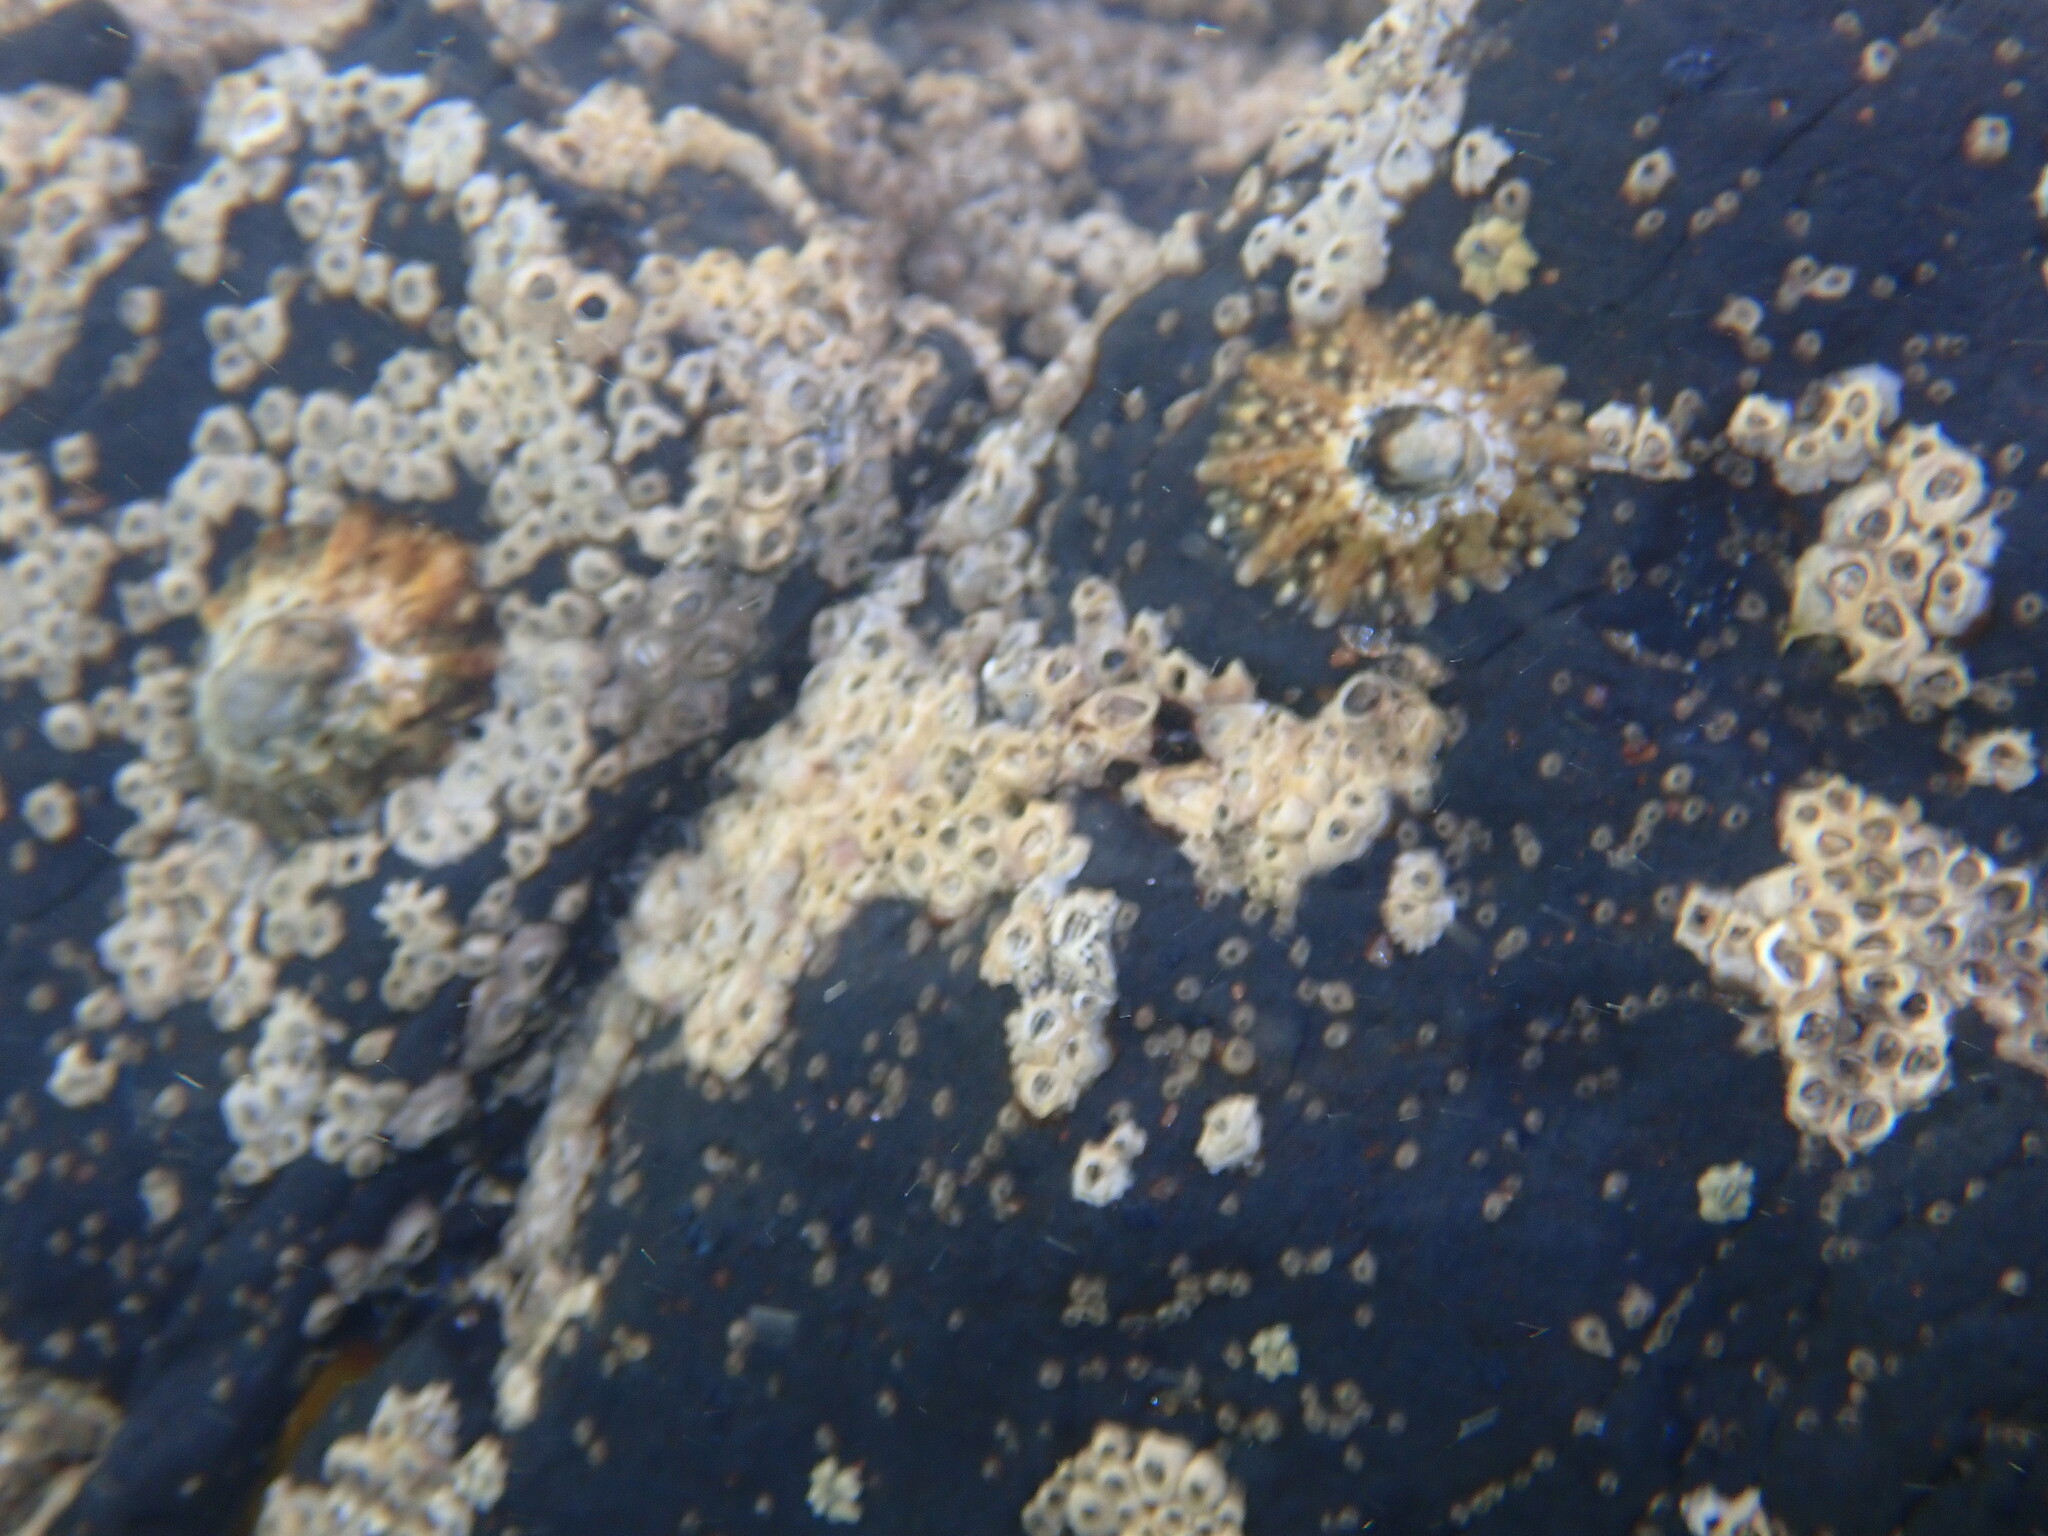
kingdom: Animalia
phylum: Mollusca
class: Gastropoda
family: Nacellidae
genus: Cellana
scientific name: Cellana ornata
